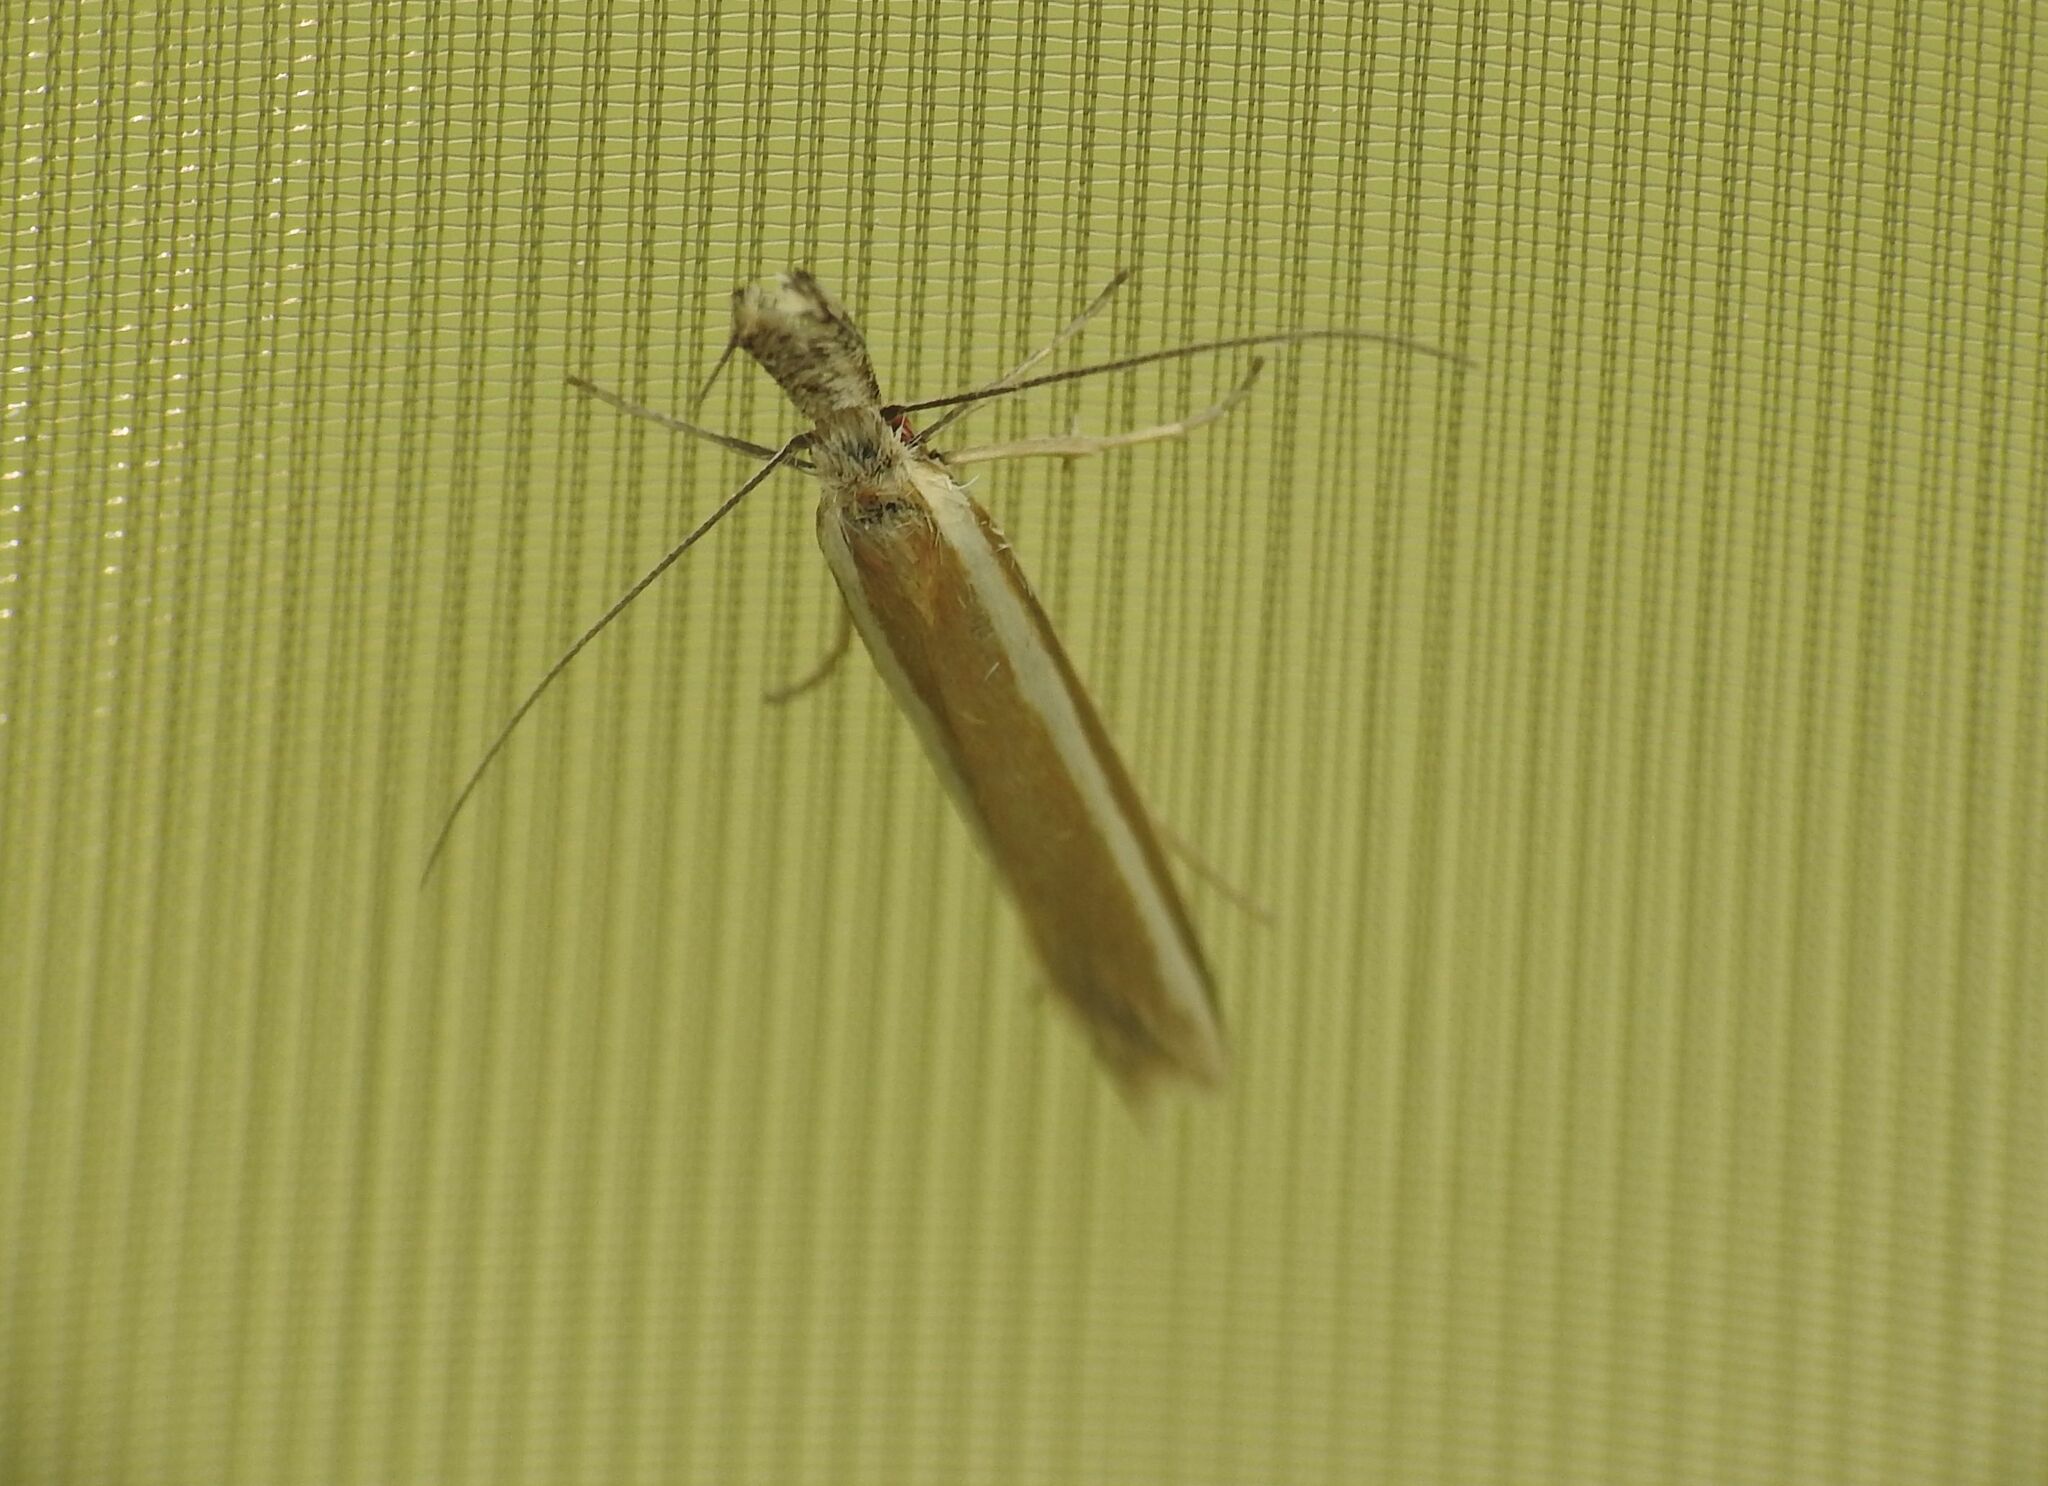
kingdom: Animalia
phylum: Arthropoda
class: Insecta
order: Lepidoptera
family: Oecophoridae
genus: Pleurota
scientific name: Pleurota aristella
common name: Southern streak
